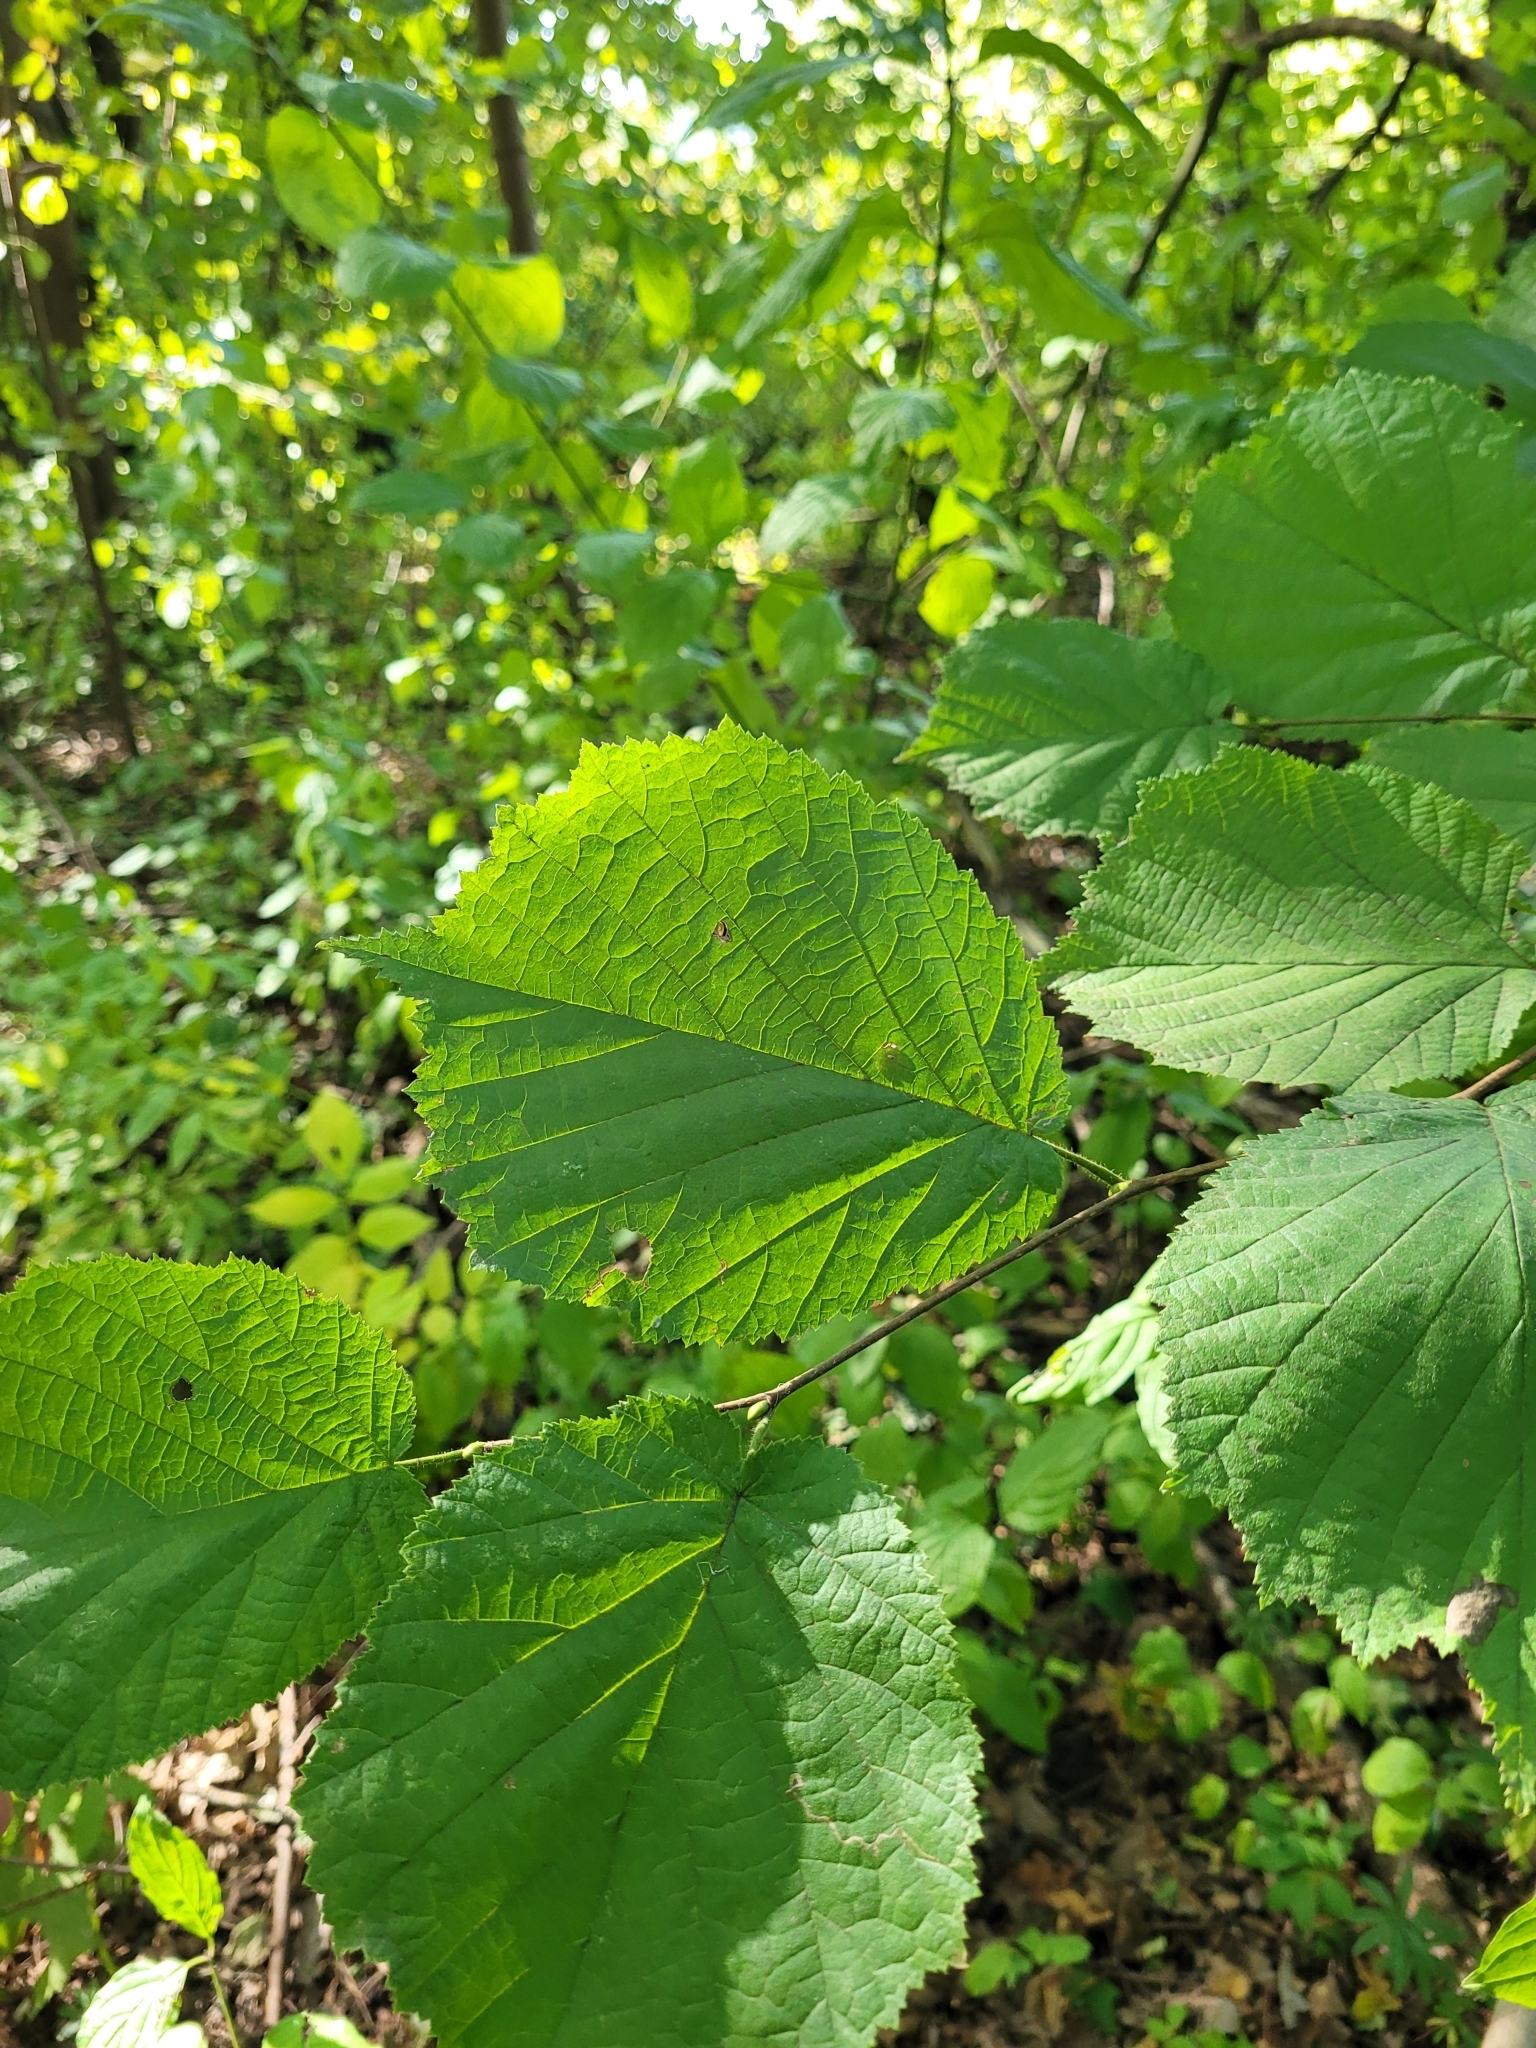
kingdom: Plantae
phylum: Tracheophyta
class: Magnoliopsida
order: Fagales
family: Betulaceae
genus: Corylus
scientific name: Corylus avellana
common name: European hazel
